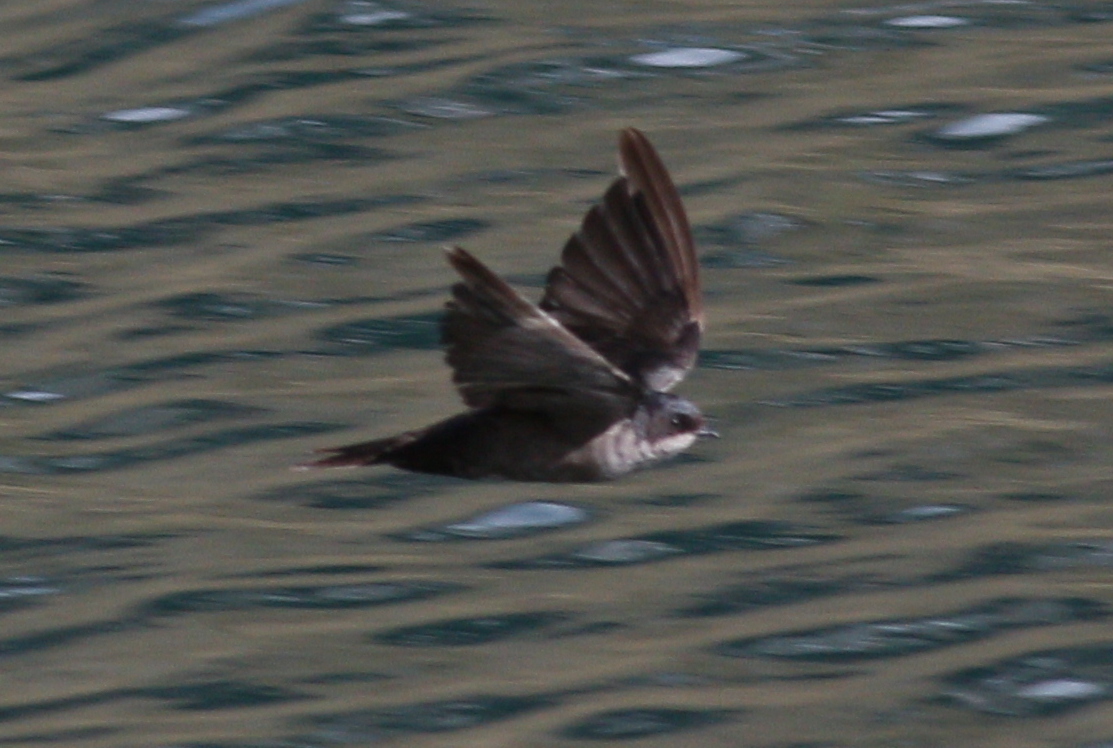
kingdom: Animalia
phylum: Chordata
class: Aves
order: Passeriformes
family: Hirundinidae
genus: Notiochelidon
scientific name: Notiochelidon murina
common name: Brown-bellied swallow
